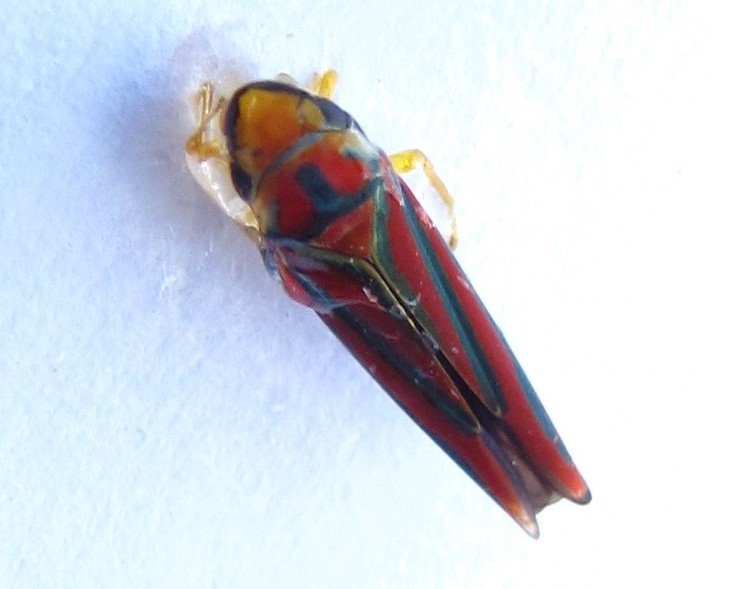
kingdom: Animalia
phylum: Arthropoda
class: Insecta
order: Hemiptera
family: Cicadellidae
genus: Graphocephala
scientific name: Graphocephala coccinea
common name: Candy-striped leafhopper
